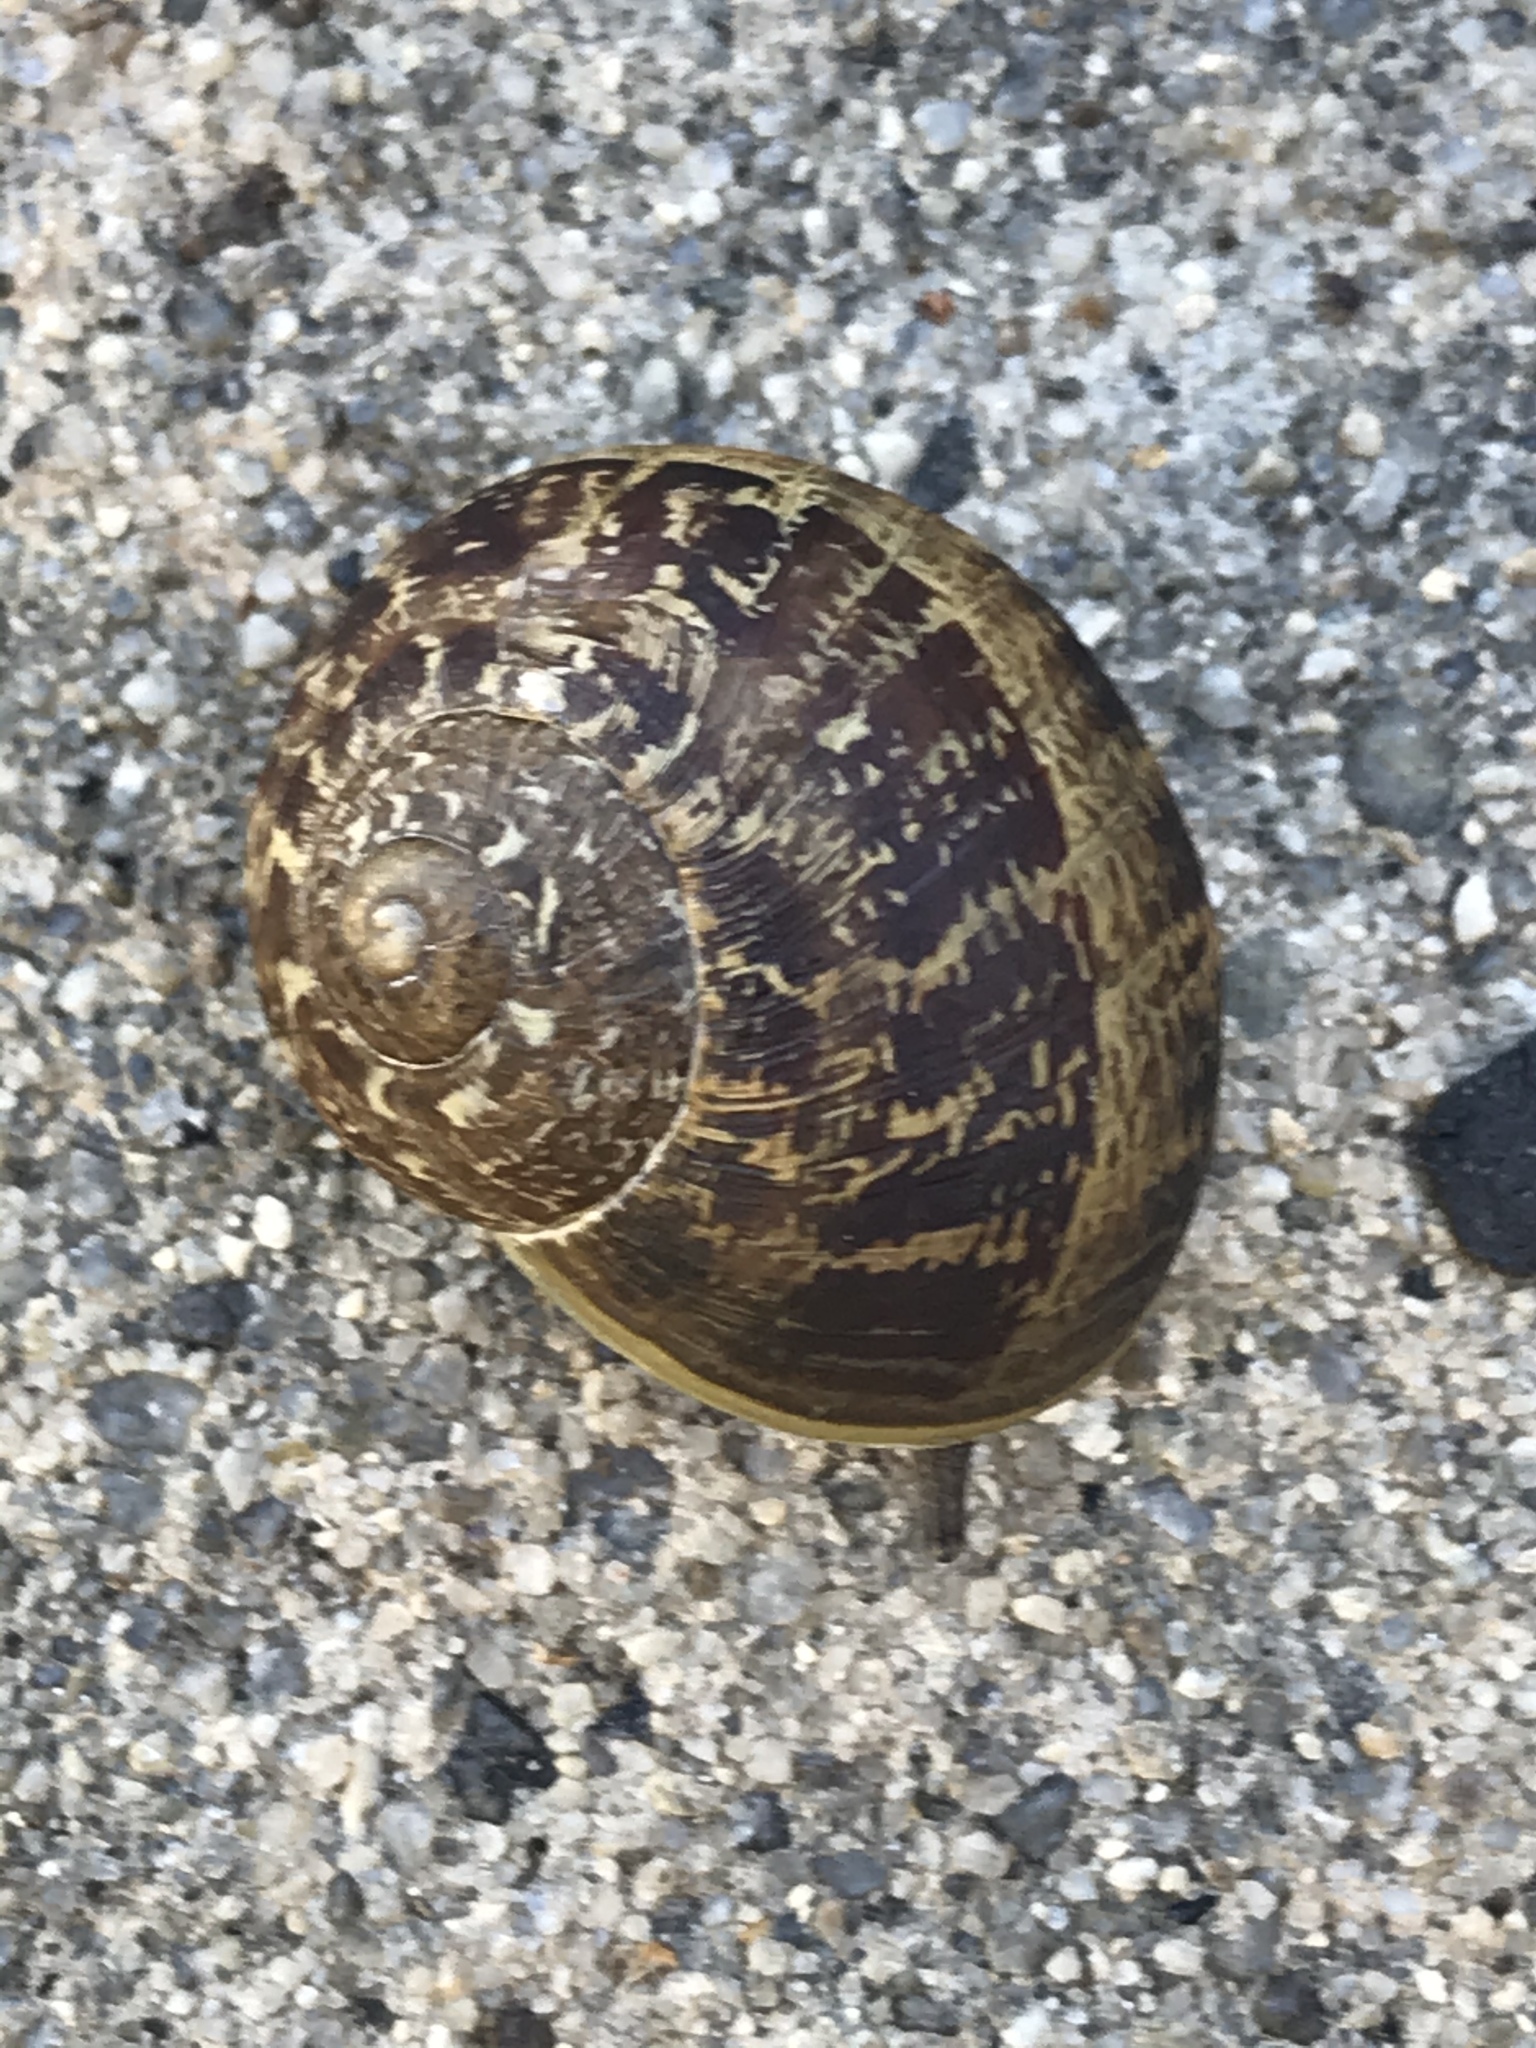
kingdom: Animalia
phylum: Mollusca
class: Gastropoda
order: Stylommatophora
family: Helicidae
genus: Cornu
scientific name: Cornu aspersum
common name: Brown garden snail
